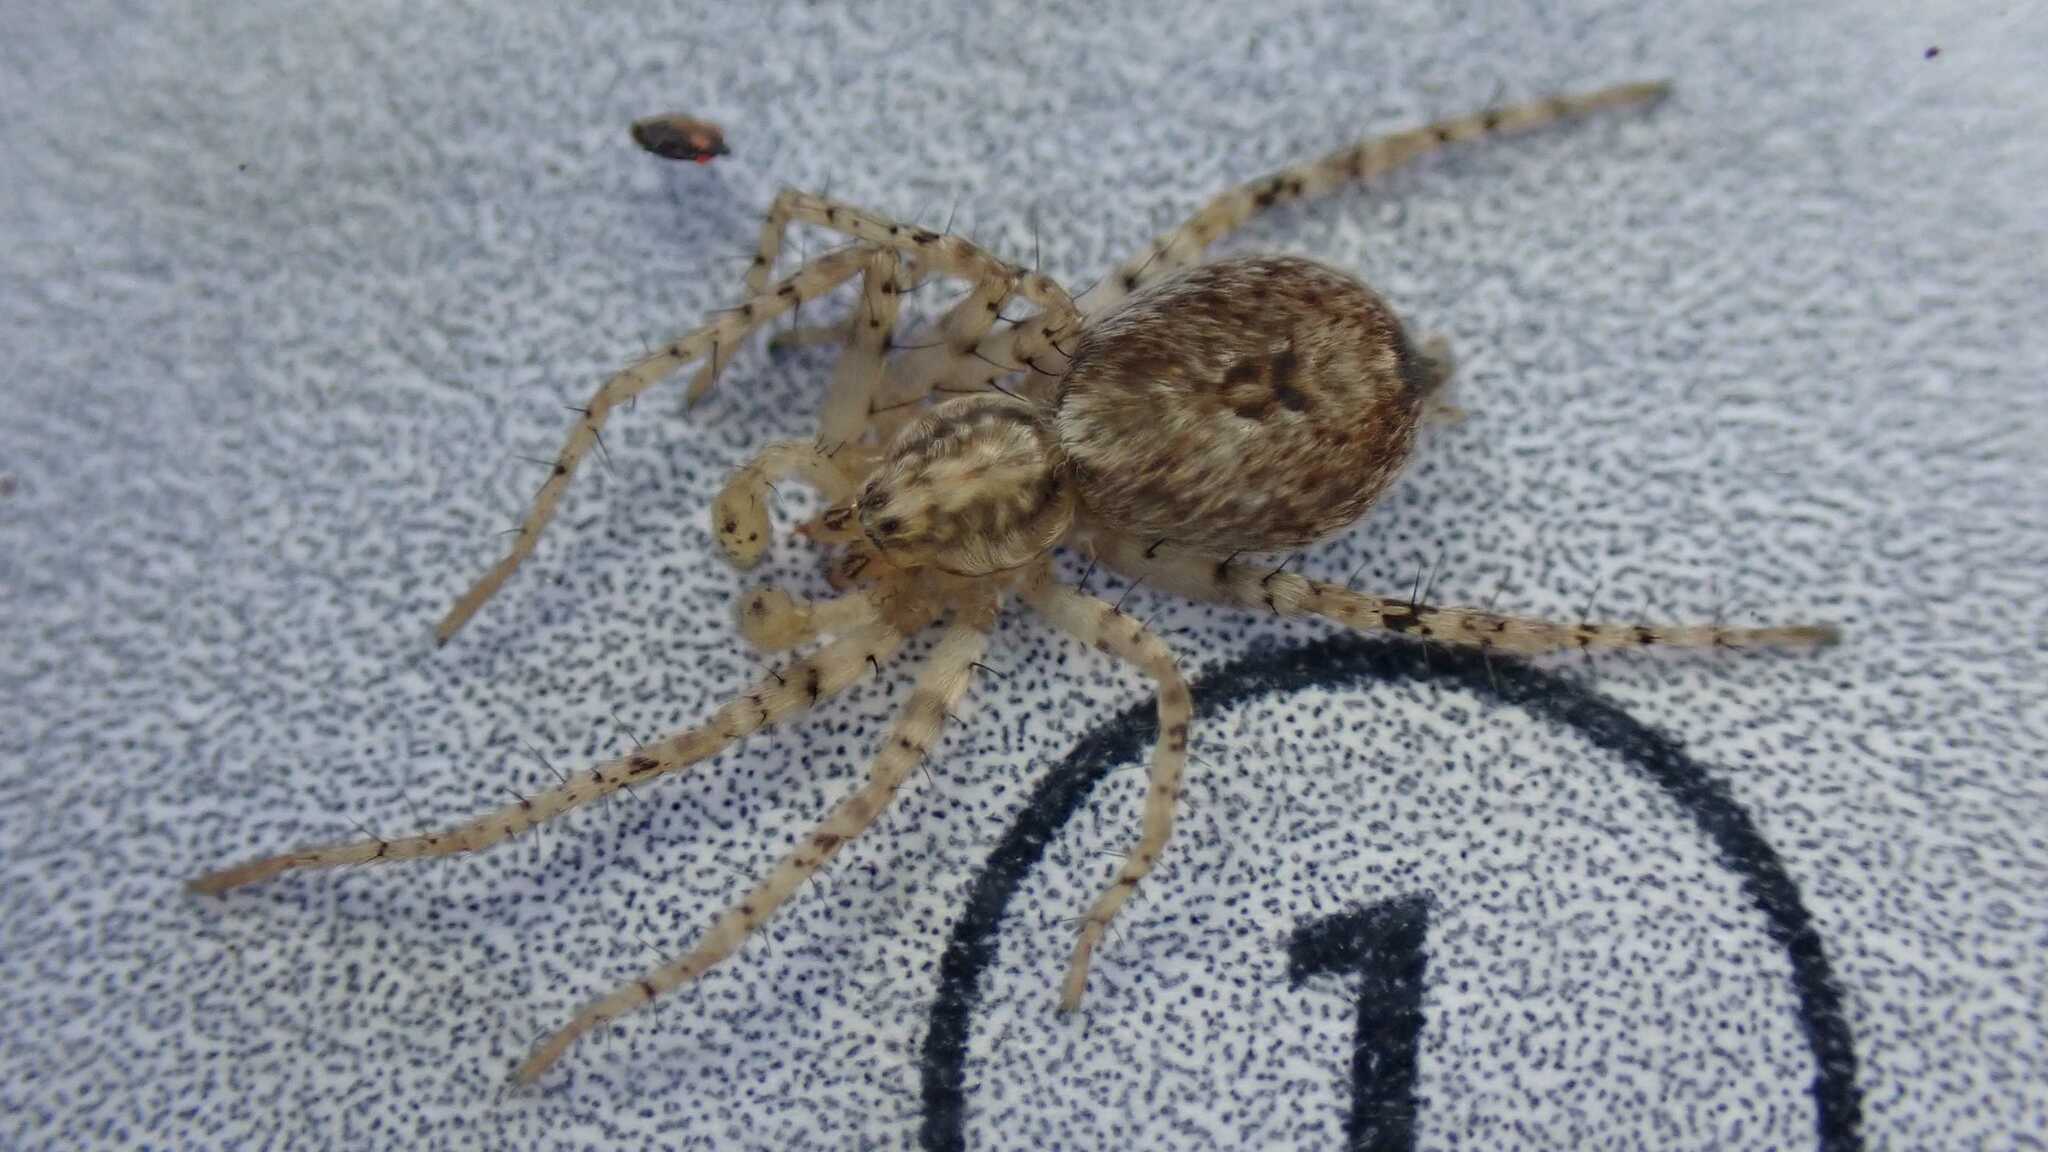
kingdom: Animalia
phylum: Arthropoda
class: Arachnida
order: Araneae
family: Anyphaenidae
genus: Anyphaena
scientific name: Anyphaena accentuata
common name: Buzzing spider
